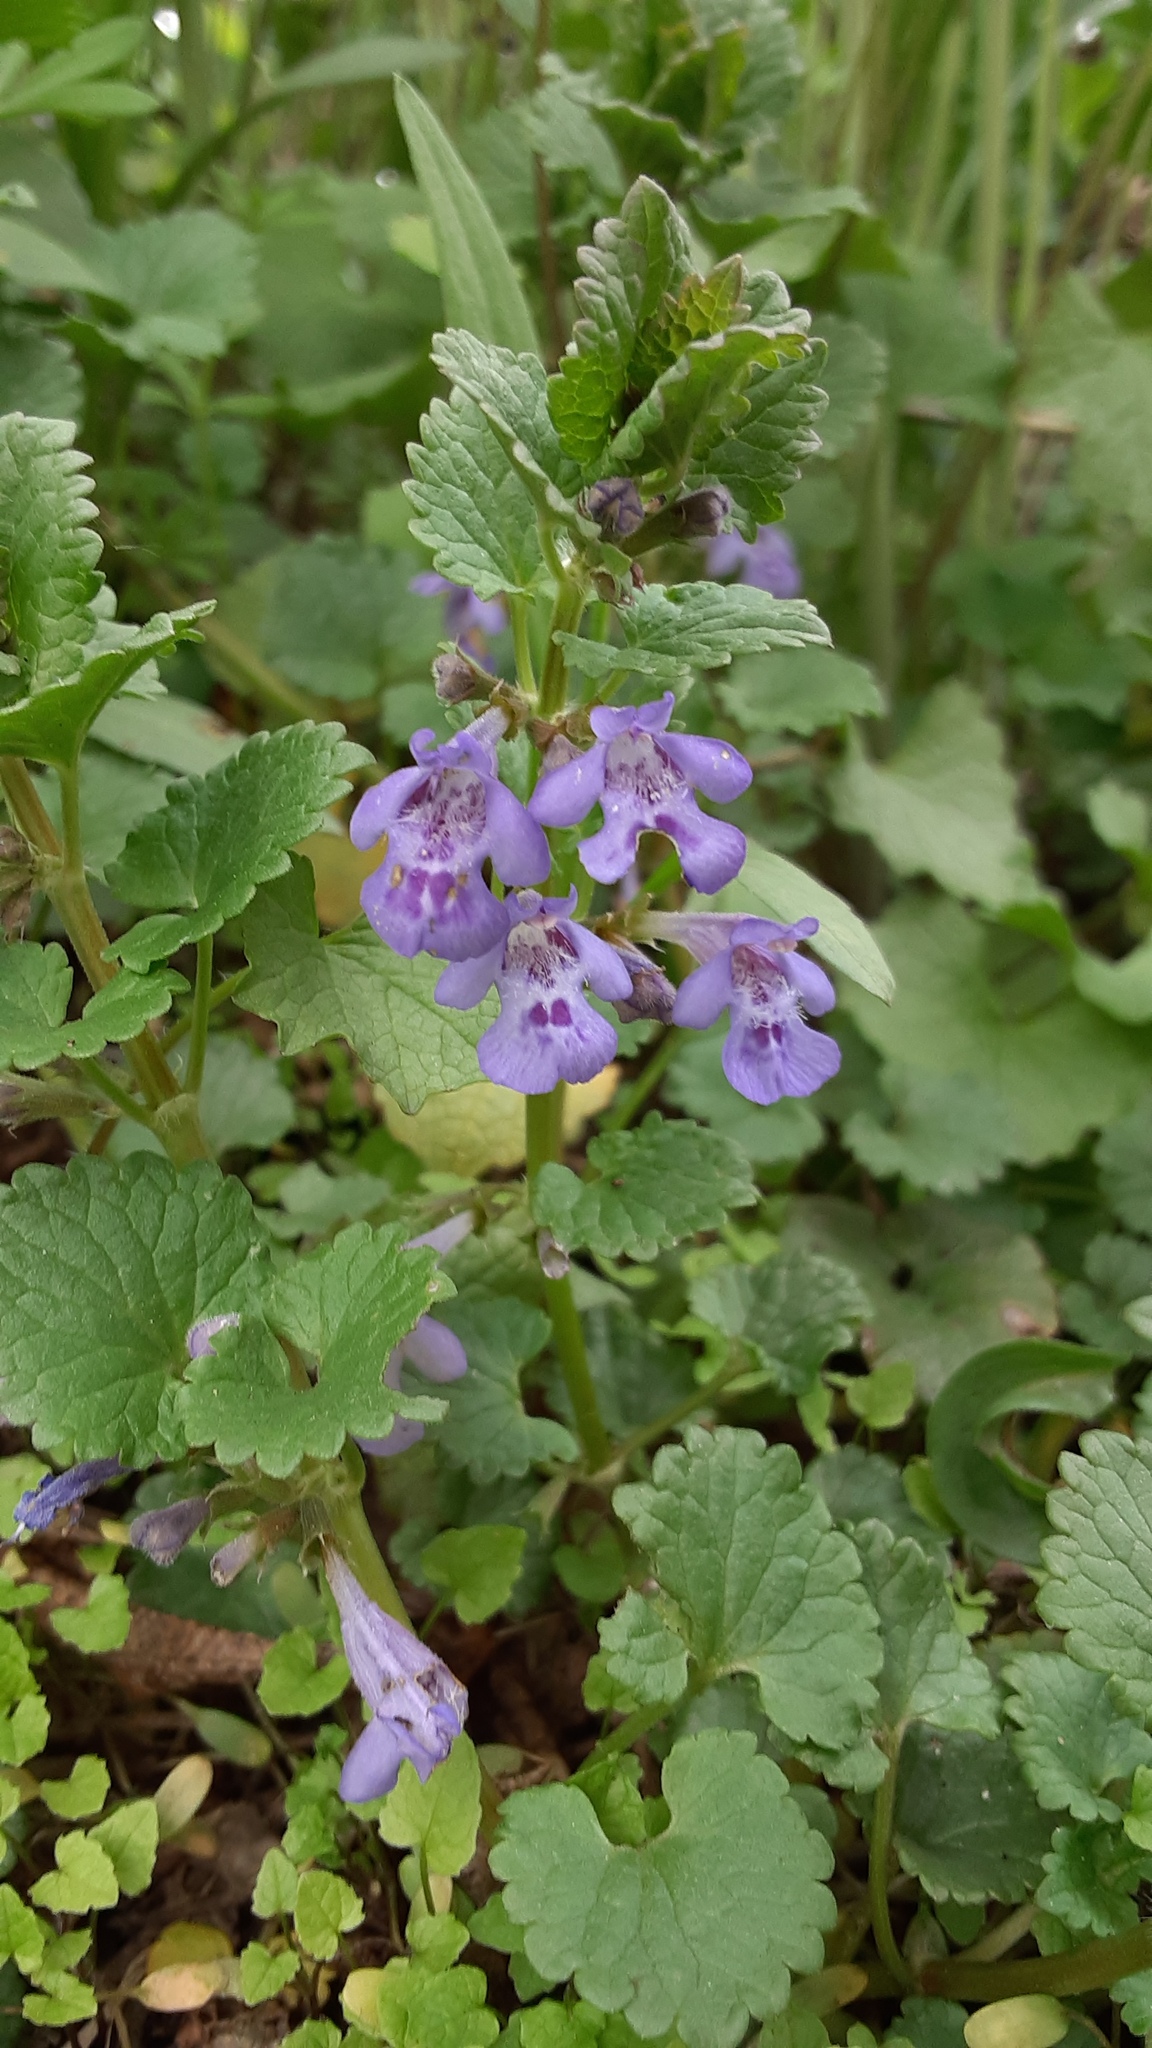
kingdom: Plantae
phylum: Tracheophyta
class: Magnoliopsida
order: Lamiales
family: Lamiaceae
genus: Glechoma
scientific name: Glechoma hederacea
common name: Ground ivy
